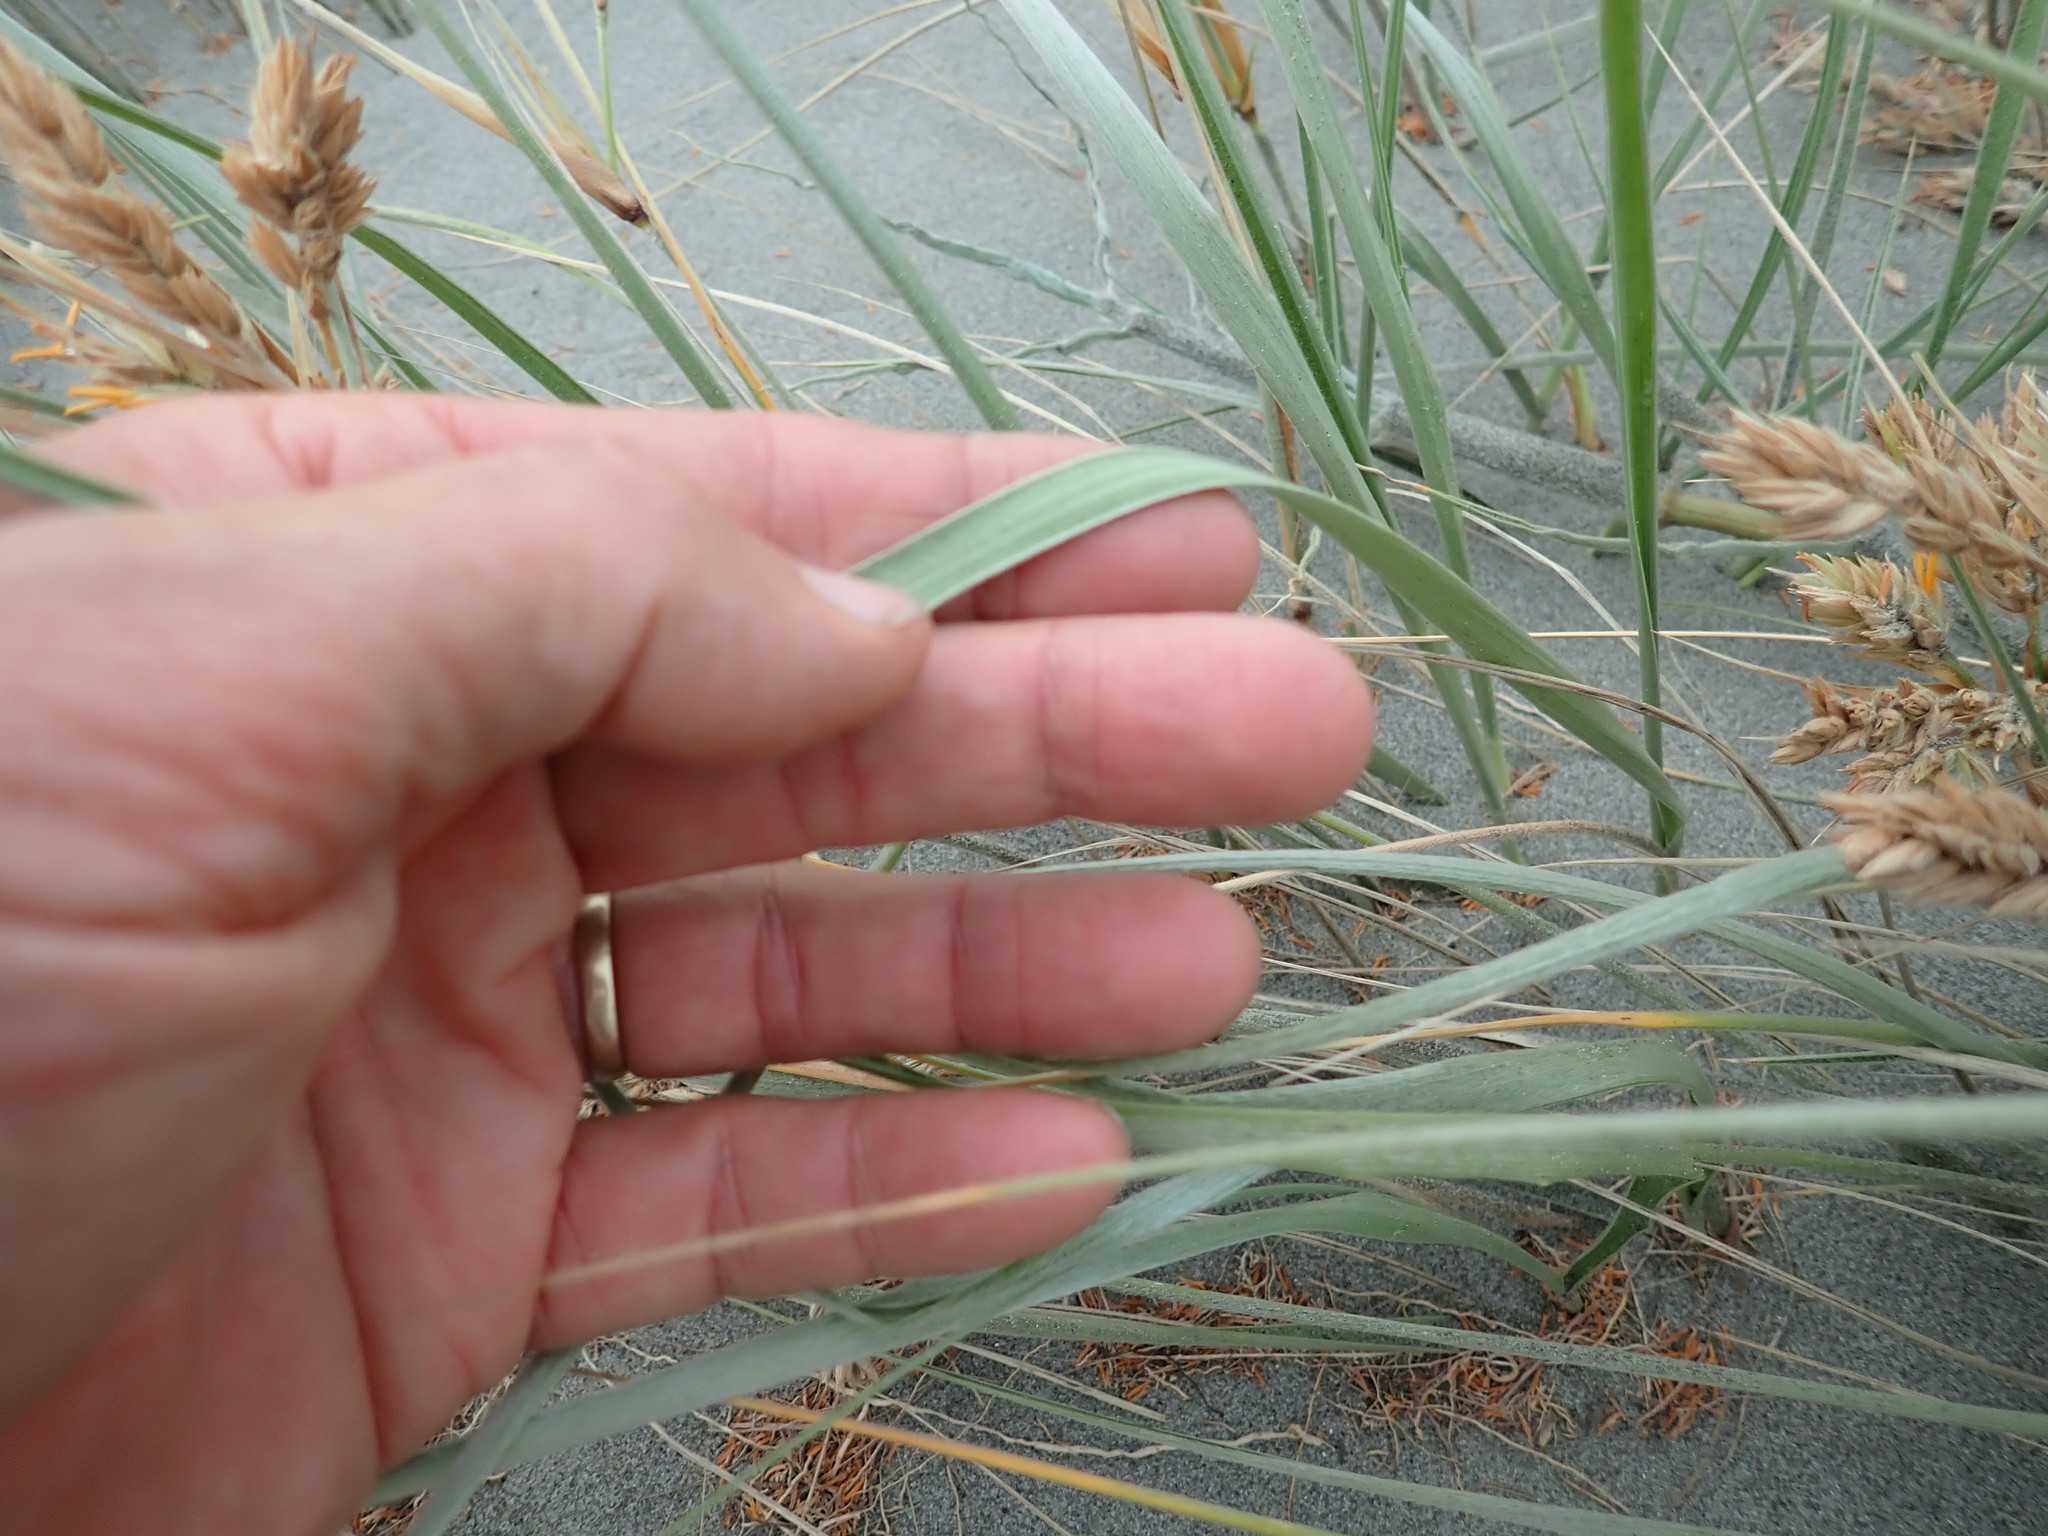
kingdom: Plantae
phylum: Tracheophyta
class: Liliopsida
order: Poales
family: Poaceae
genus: Spinifex
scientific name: Spinifex sericeus
